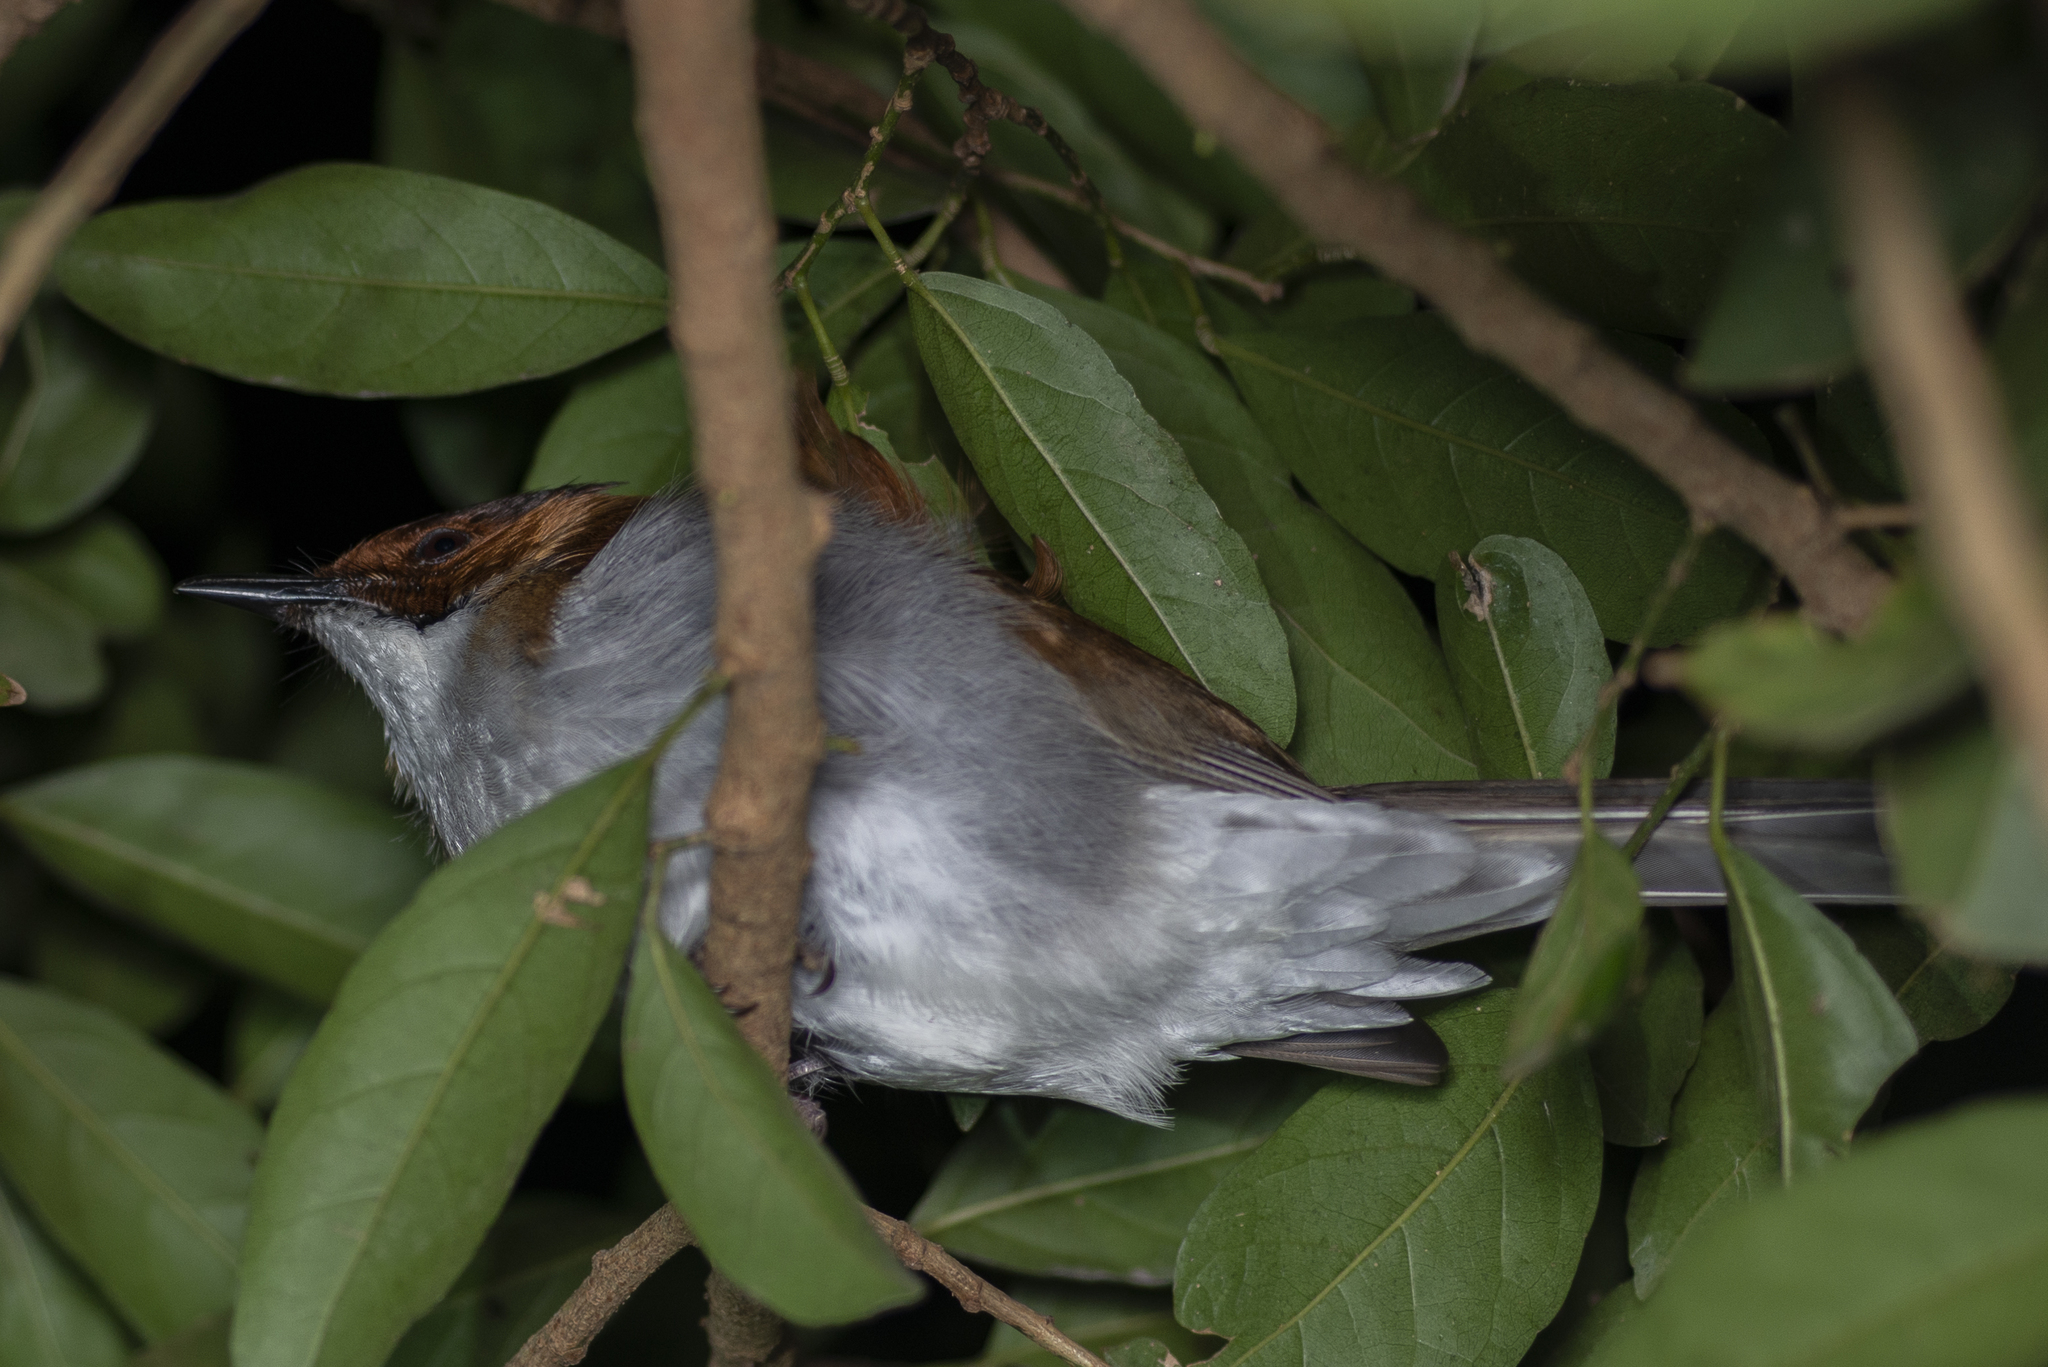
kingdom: Animalia
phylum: Chordata
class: Aves
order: Passeriformes
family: Pycnonotidae
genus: Hemixos
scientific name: Hemixos castanonotus
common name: Chestnut bulbul
